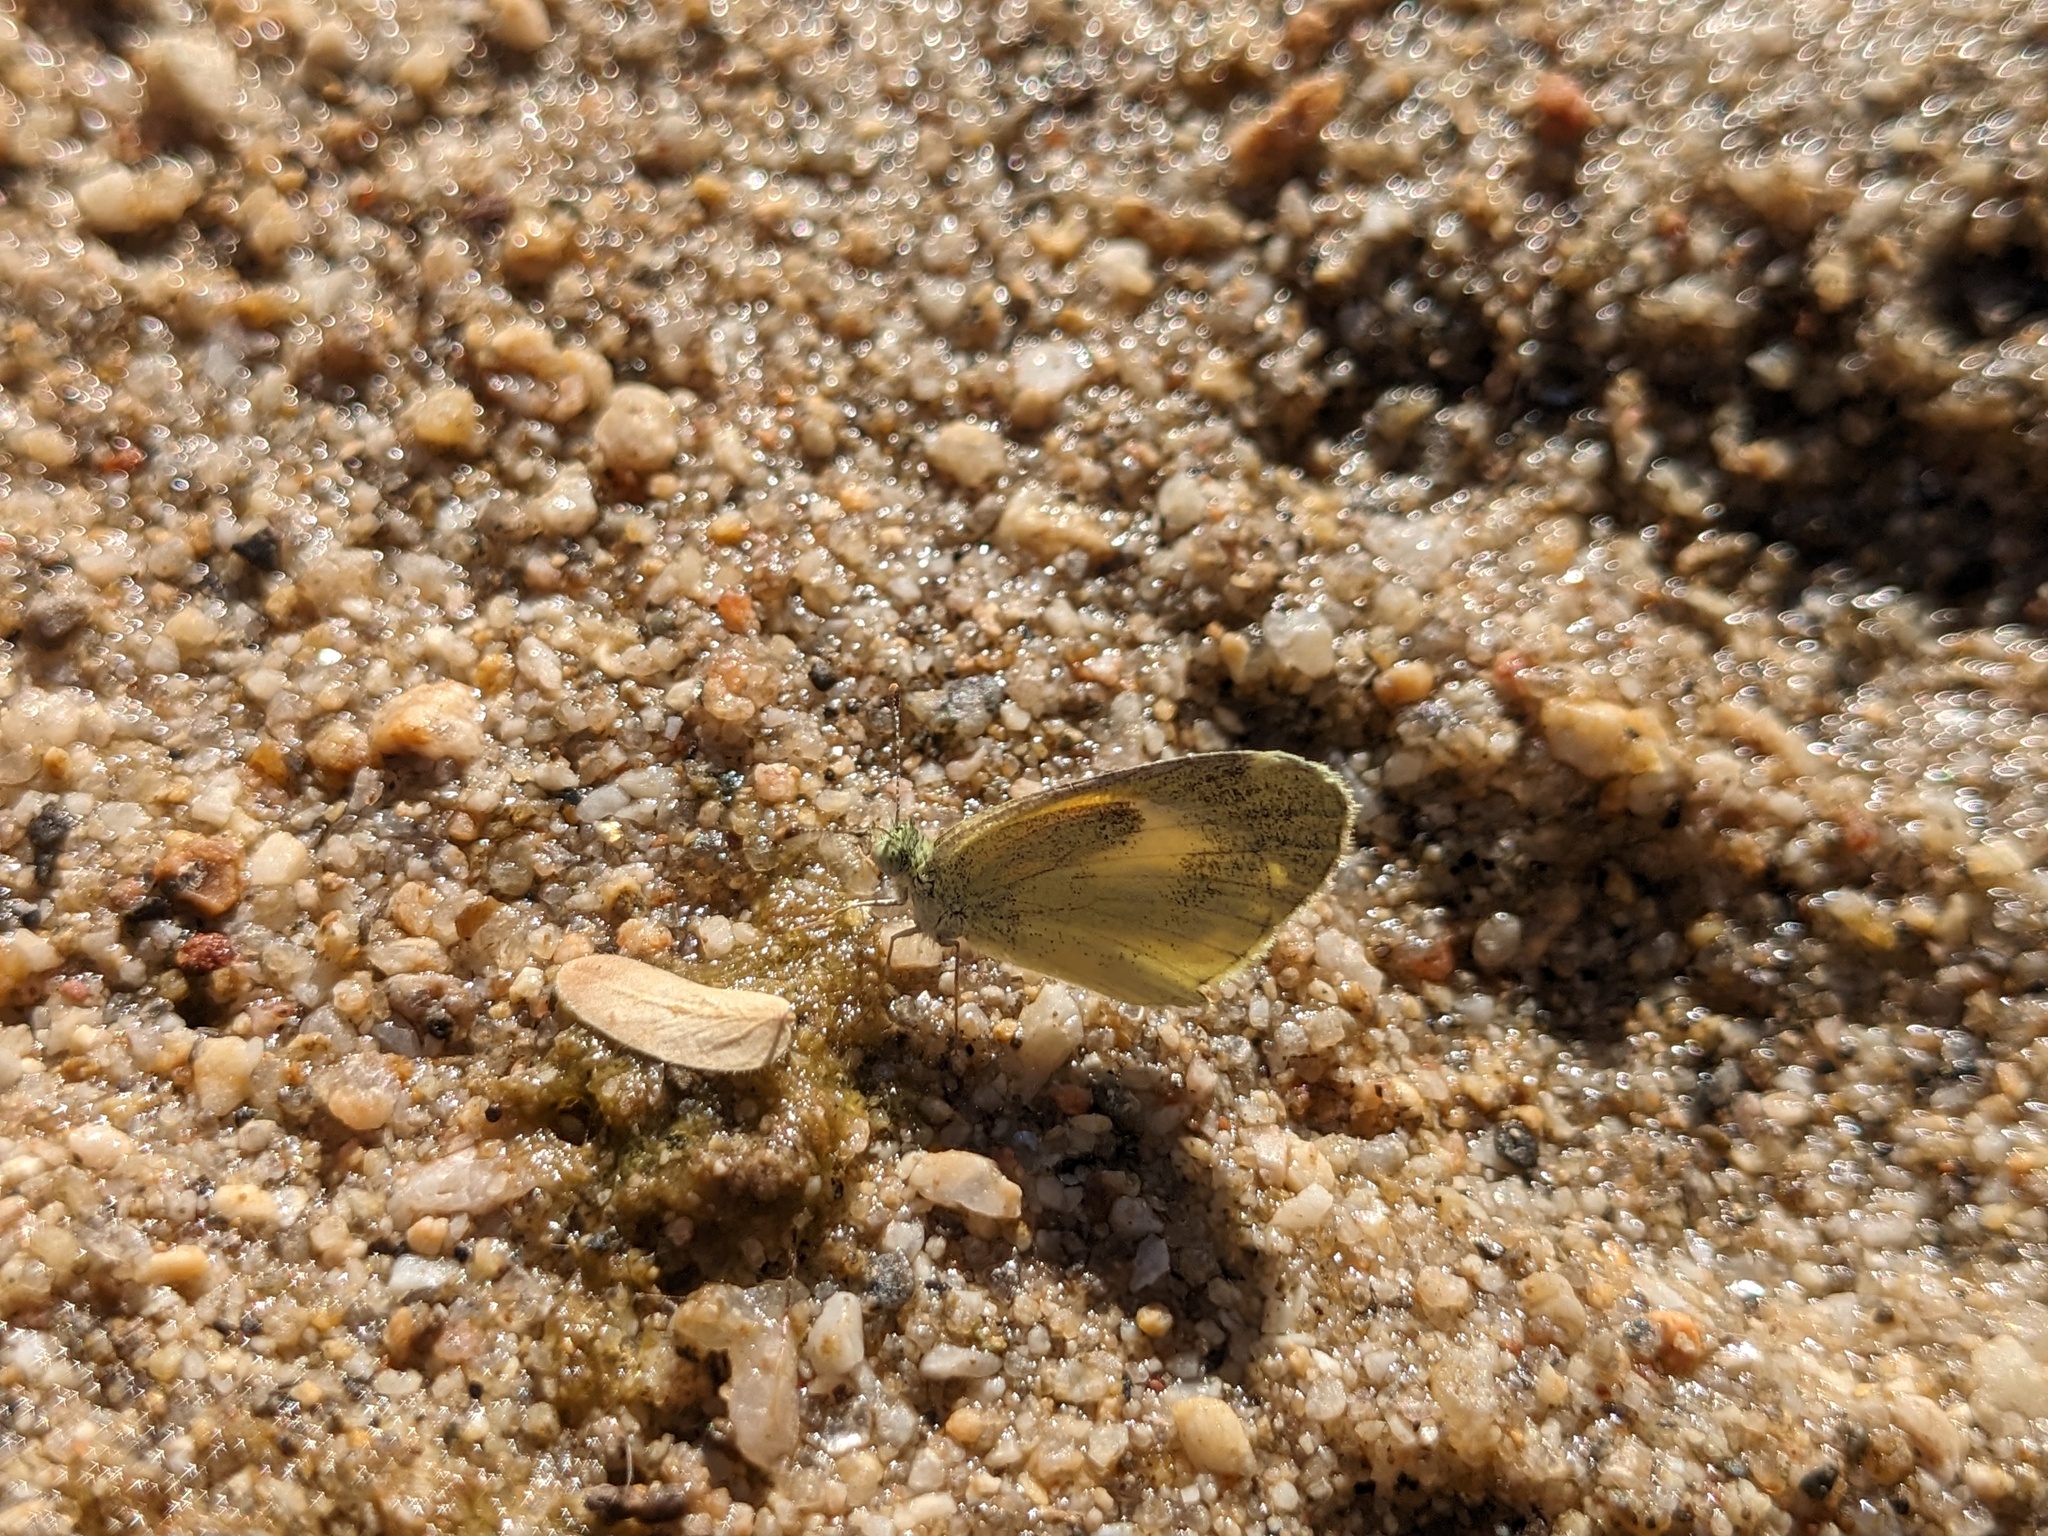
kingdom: Animalia
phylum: Arthropoda
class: Insecta
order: Lepidoptera
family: Pieridae
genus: Nathalis
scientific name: Nathalis iole
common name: Dainty sulphur
